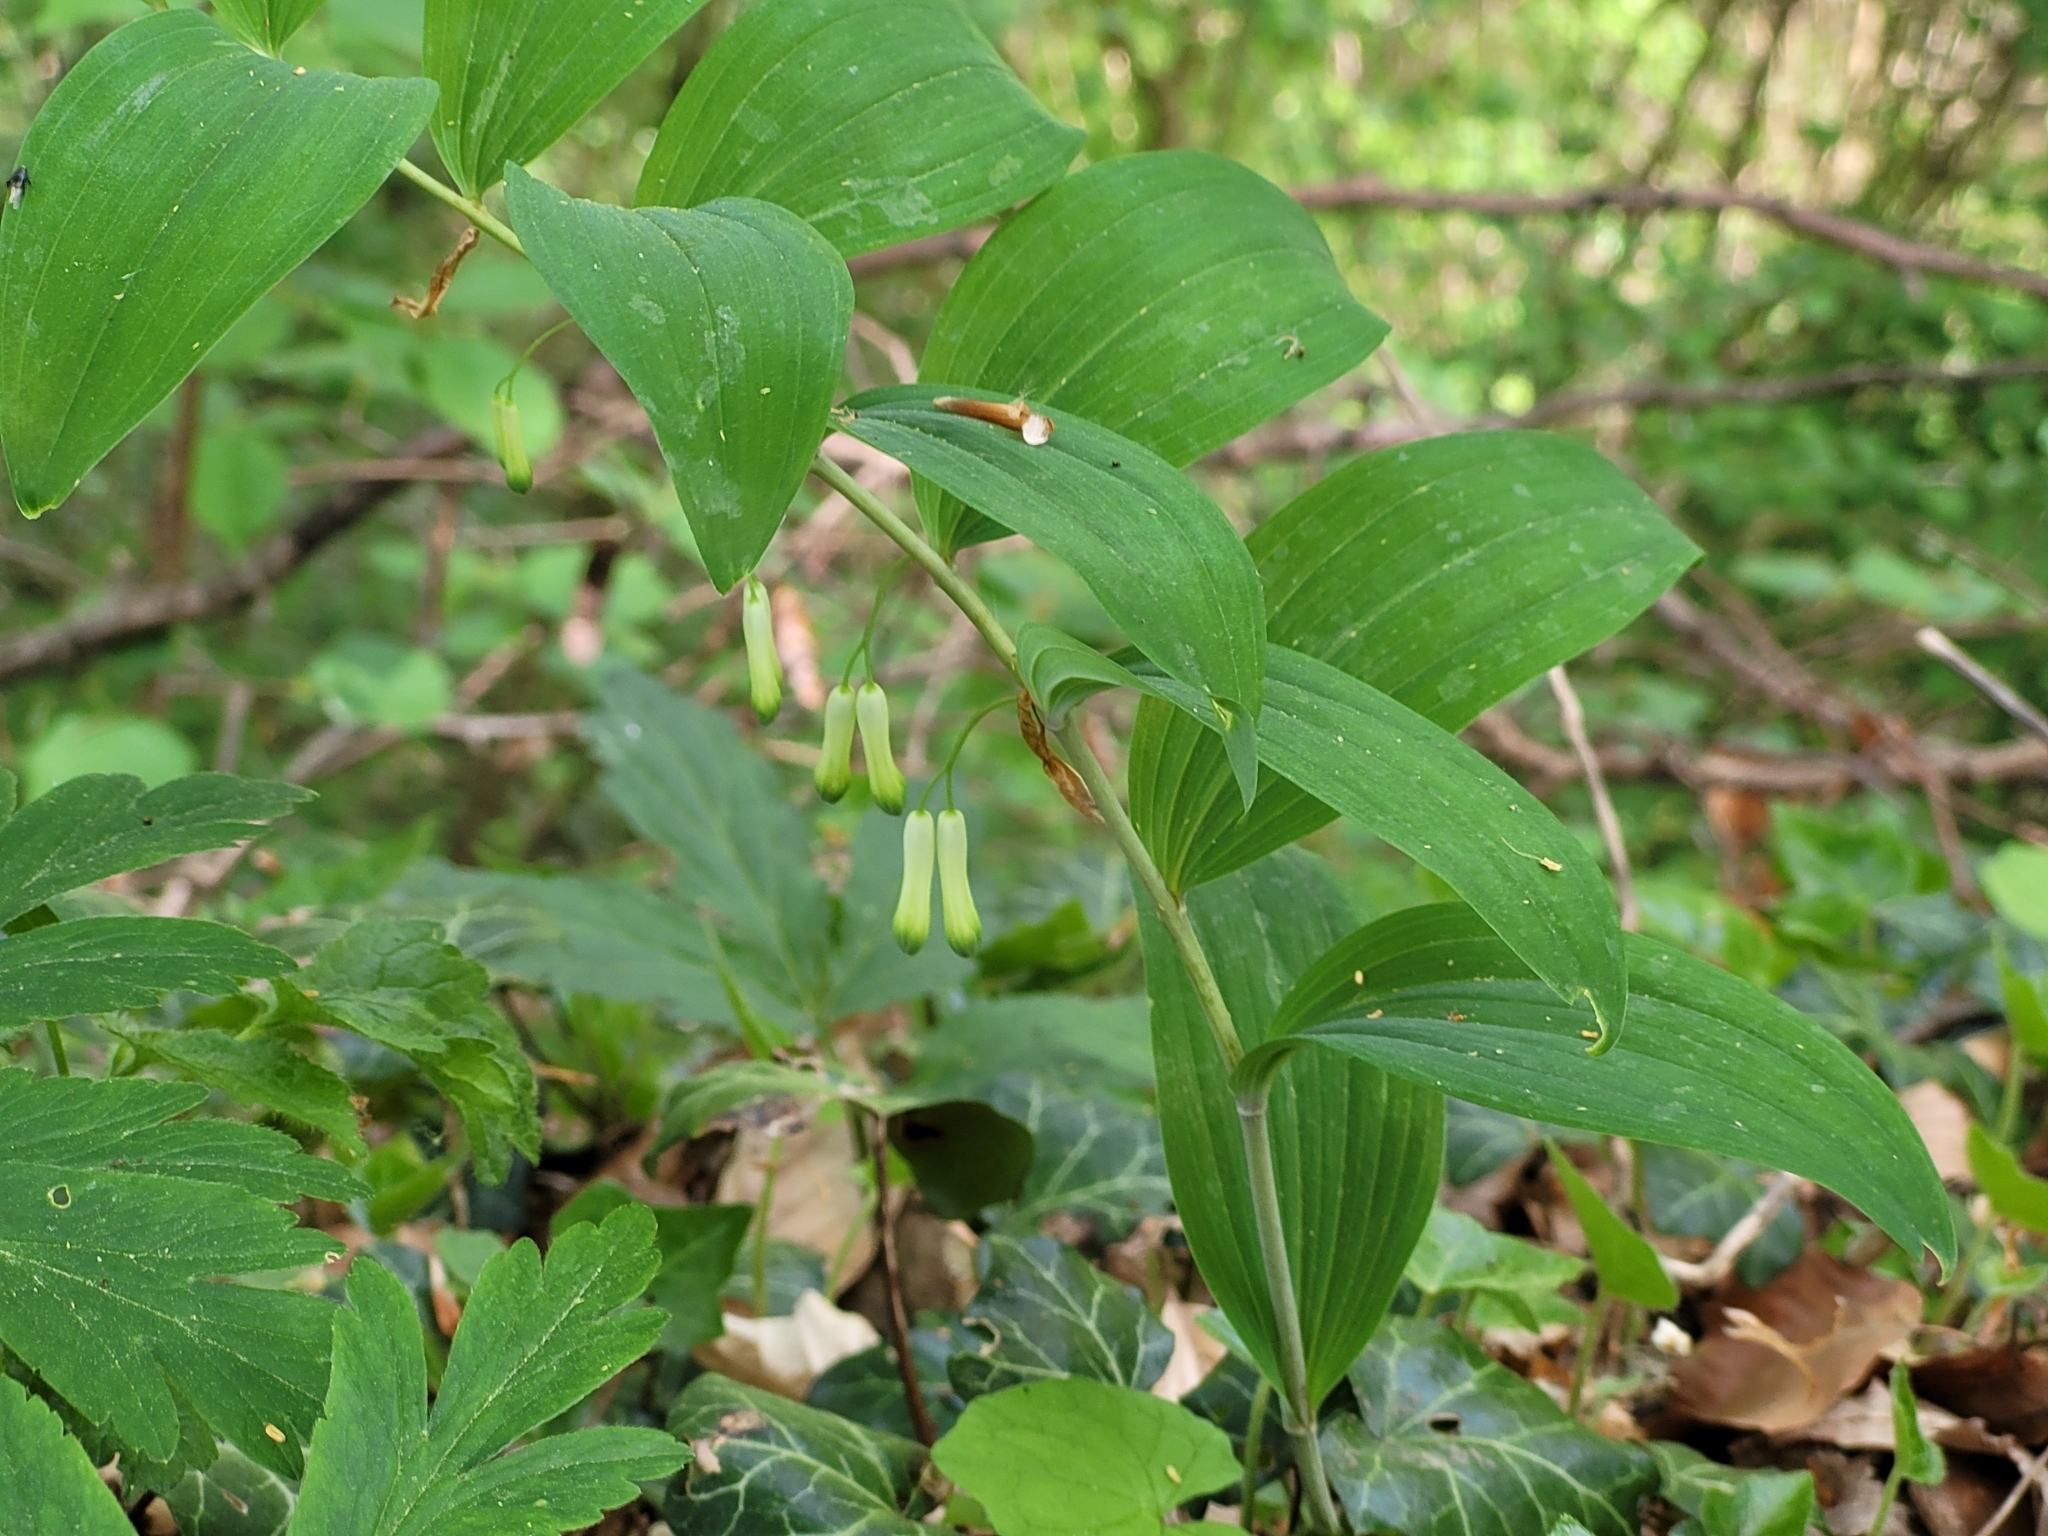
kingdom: Plantae
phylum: Tracheophyta
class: Liliopsida
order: Asparagales
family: Asparagaceae
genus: Polygonatum
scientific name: Polygonatum multiflorum
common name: Solomon's-seal
